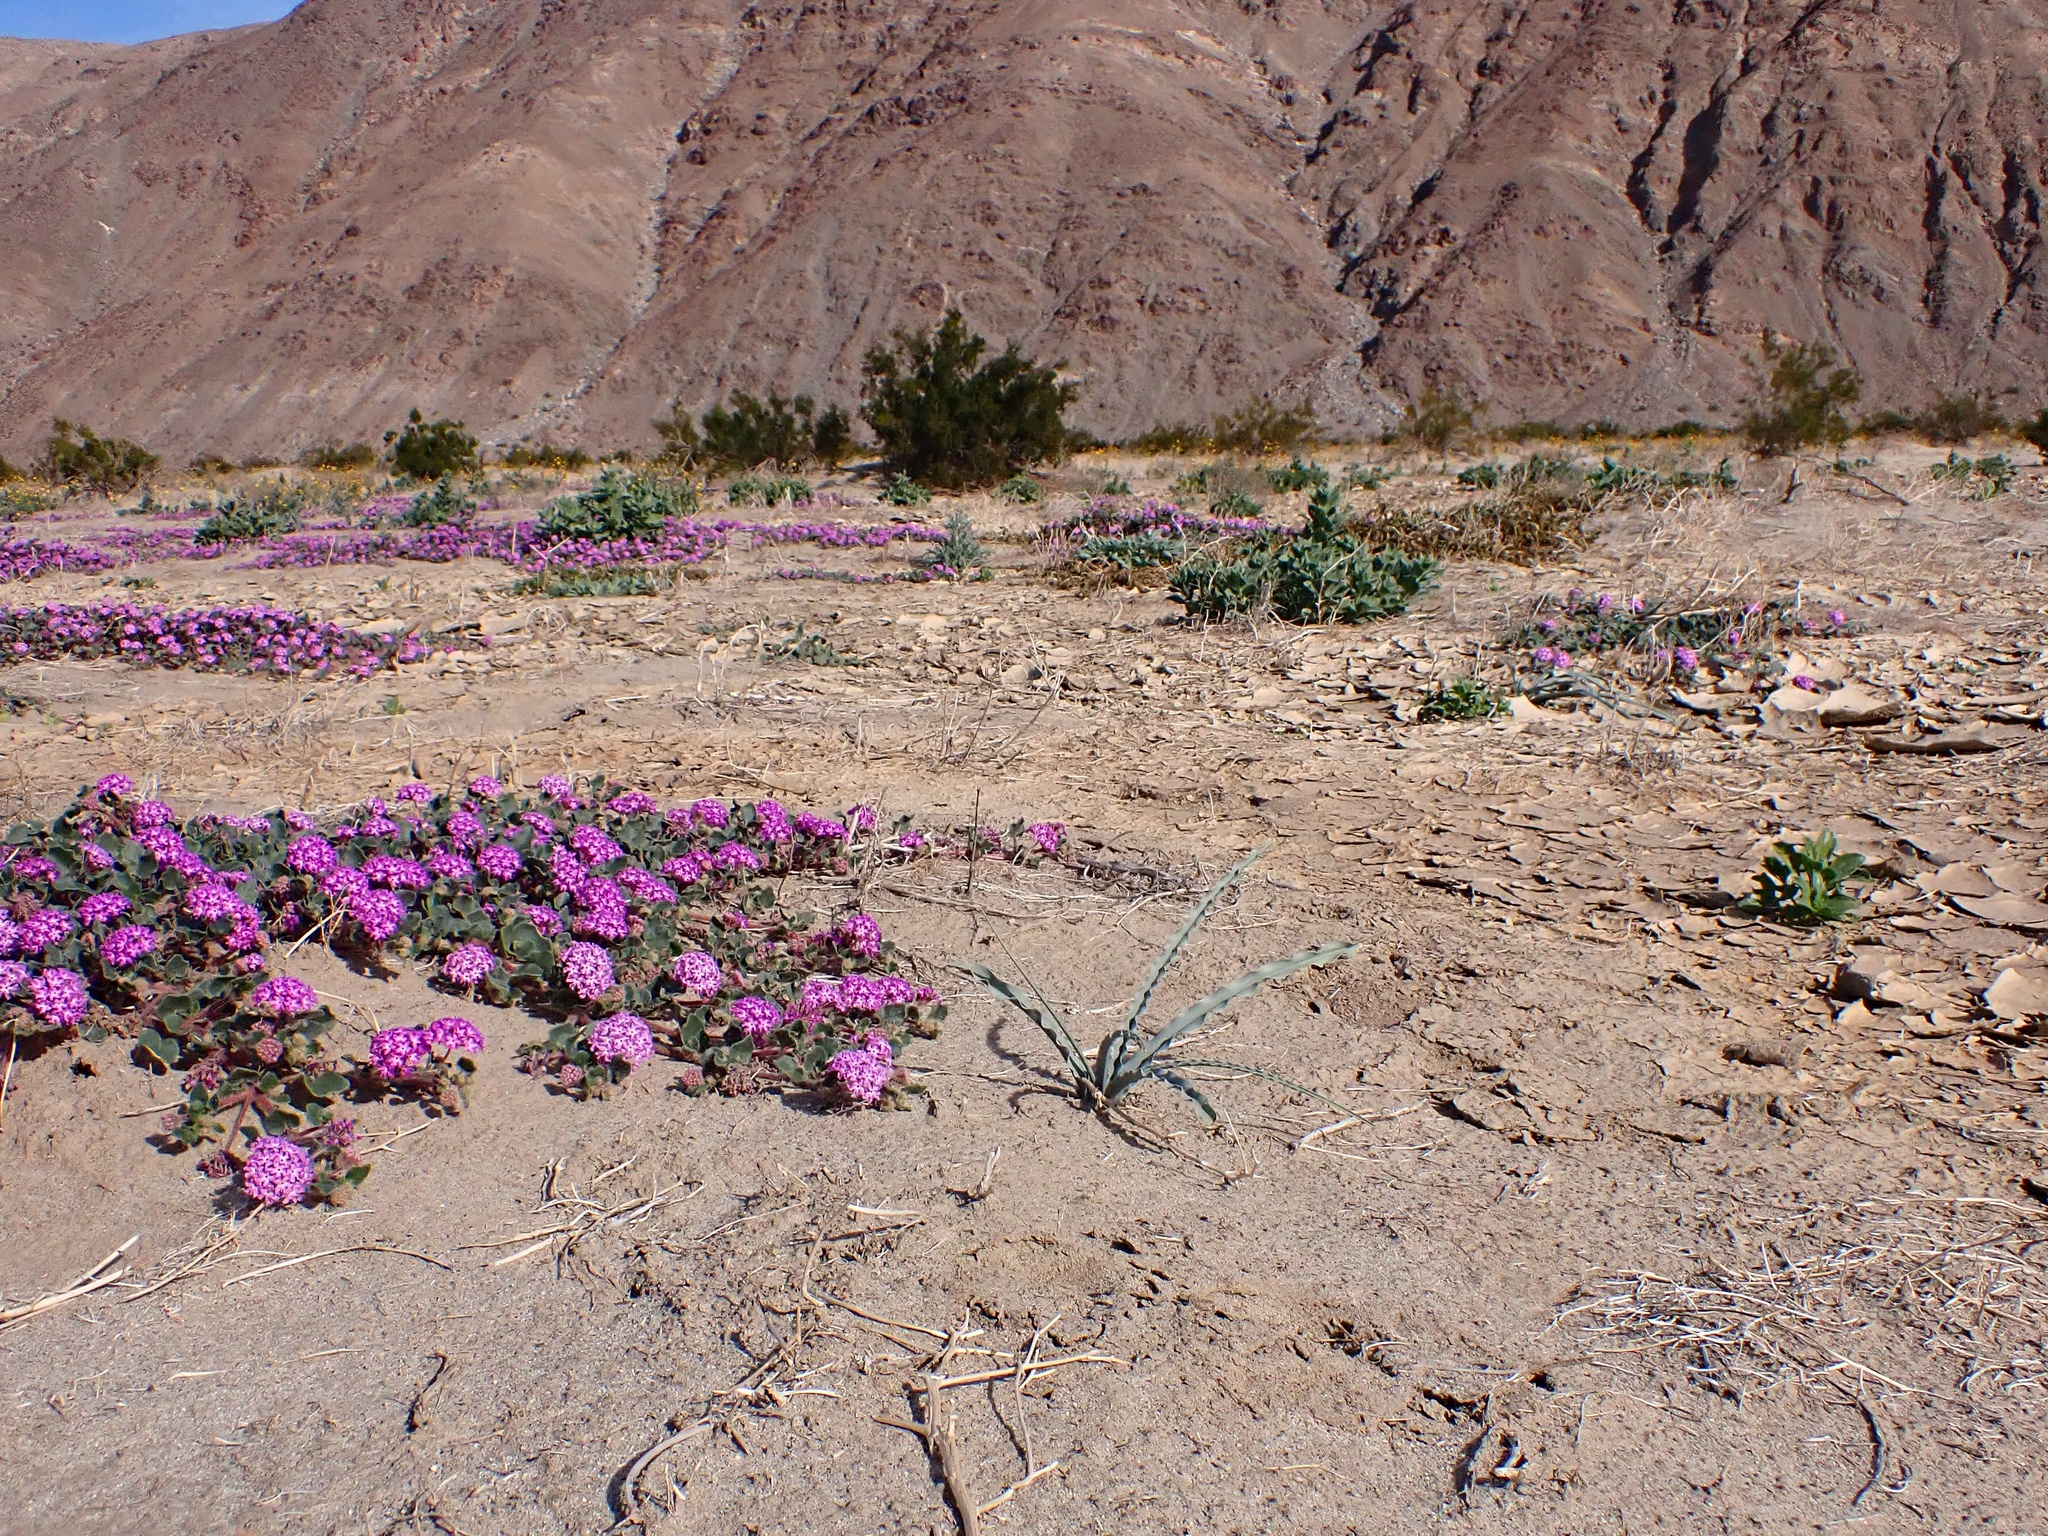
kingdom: Plantae
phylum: Tracheophyta
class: Liliopsida
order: Asparagales
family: Asparagaceae
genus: Hesperocallis
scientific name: Hesperocallis undulata
